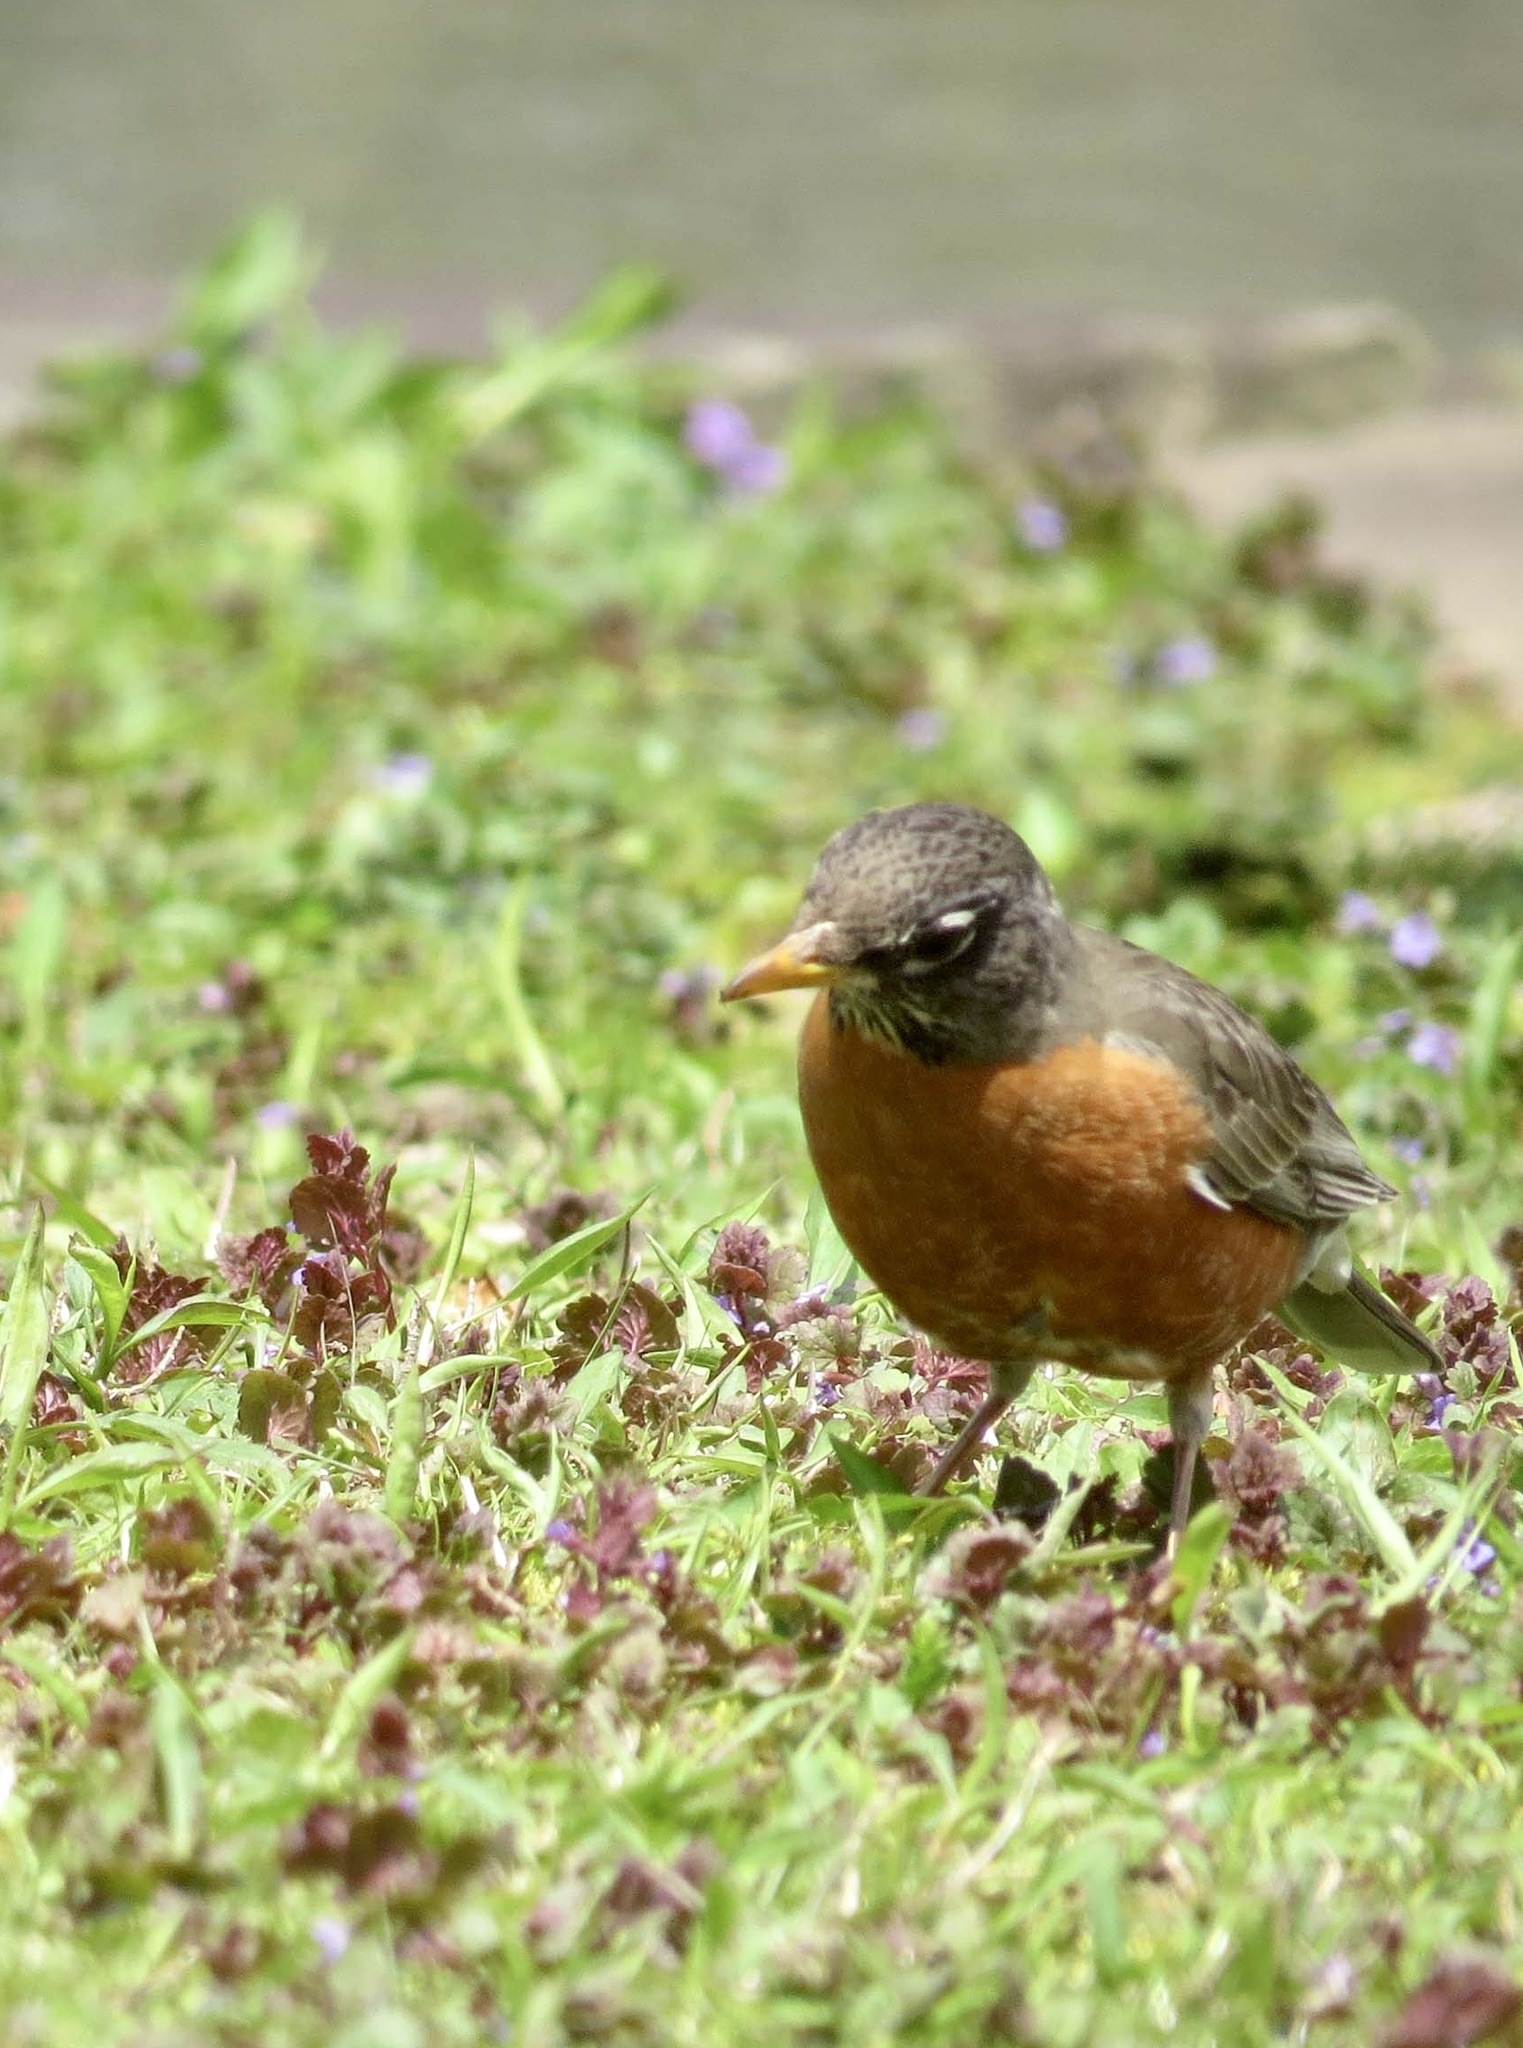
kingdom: Animalia
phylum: Chordata
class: Aves
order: Passeriformes
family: Turdidae
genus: Turdus
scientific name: Turdus migratorius
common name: American robin
